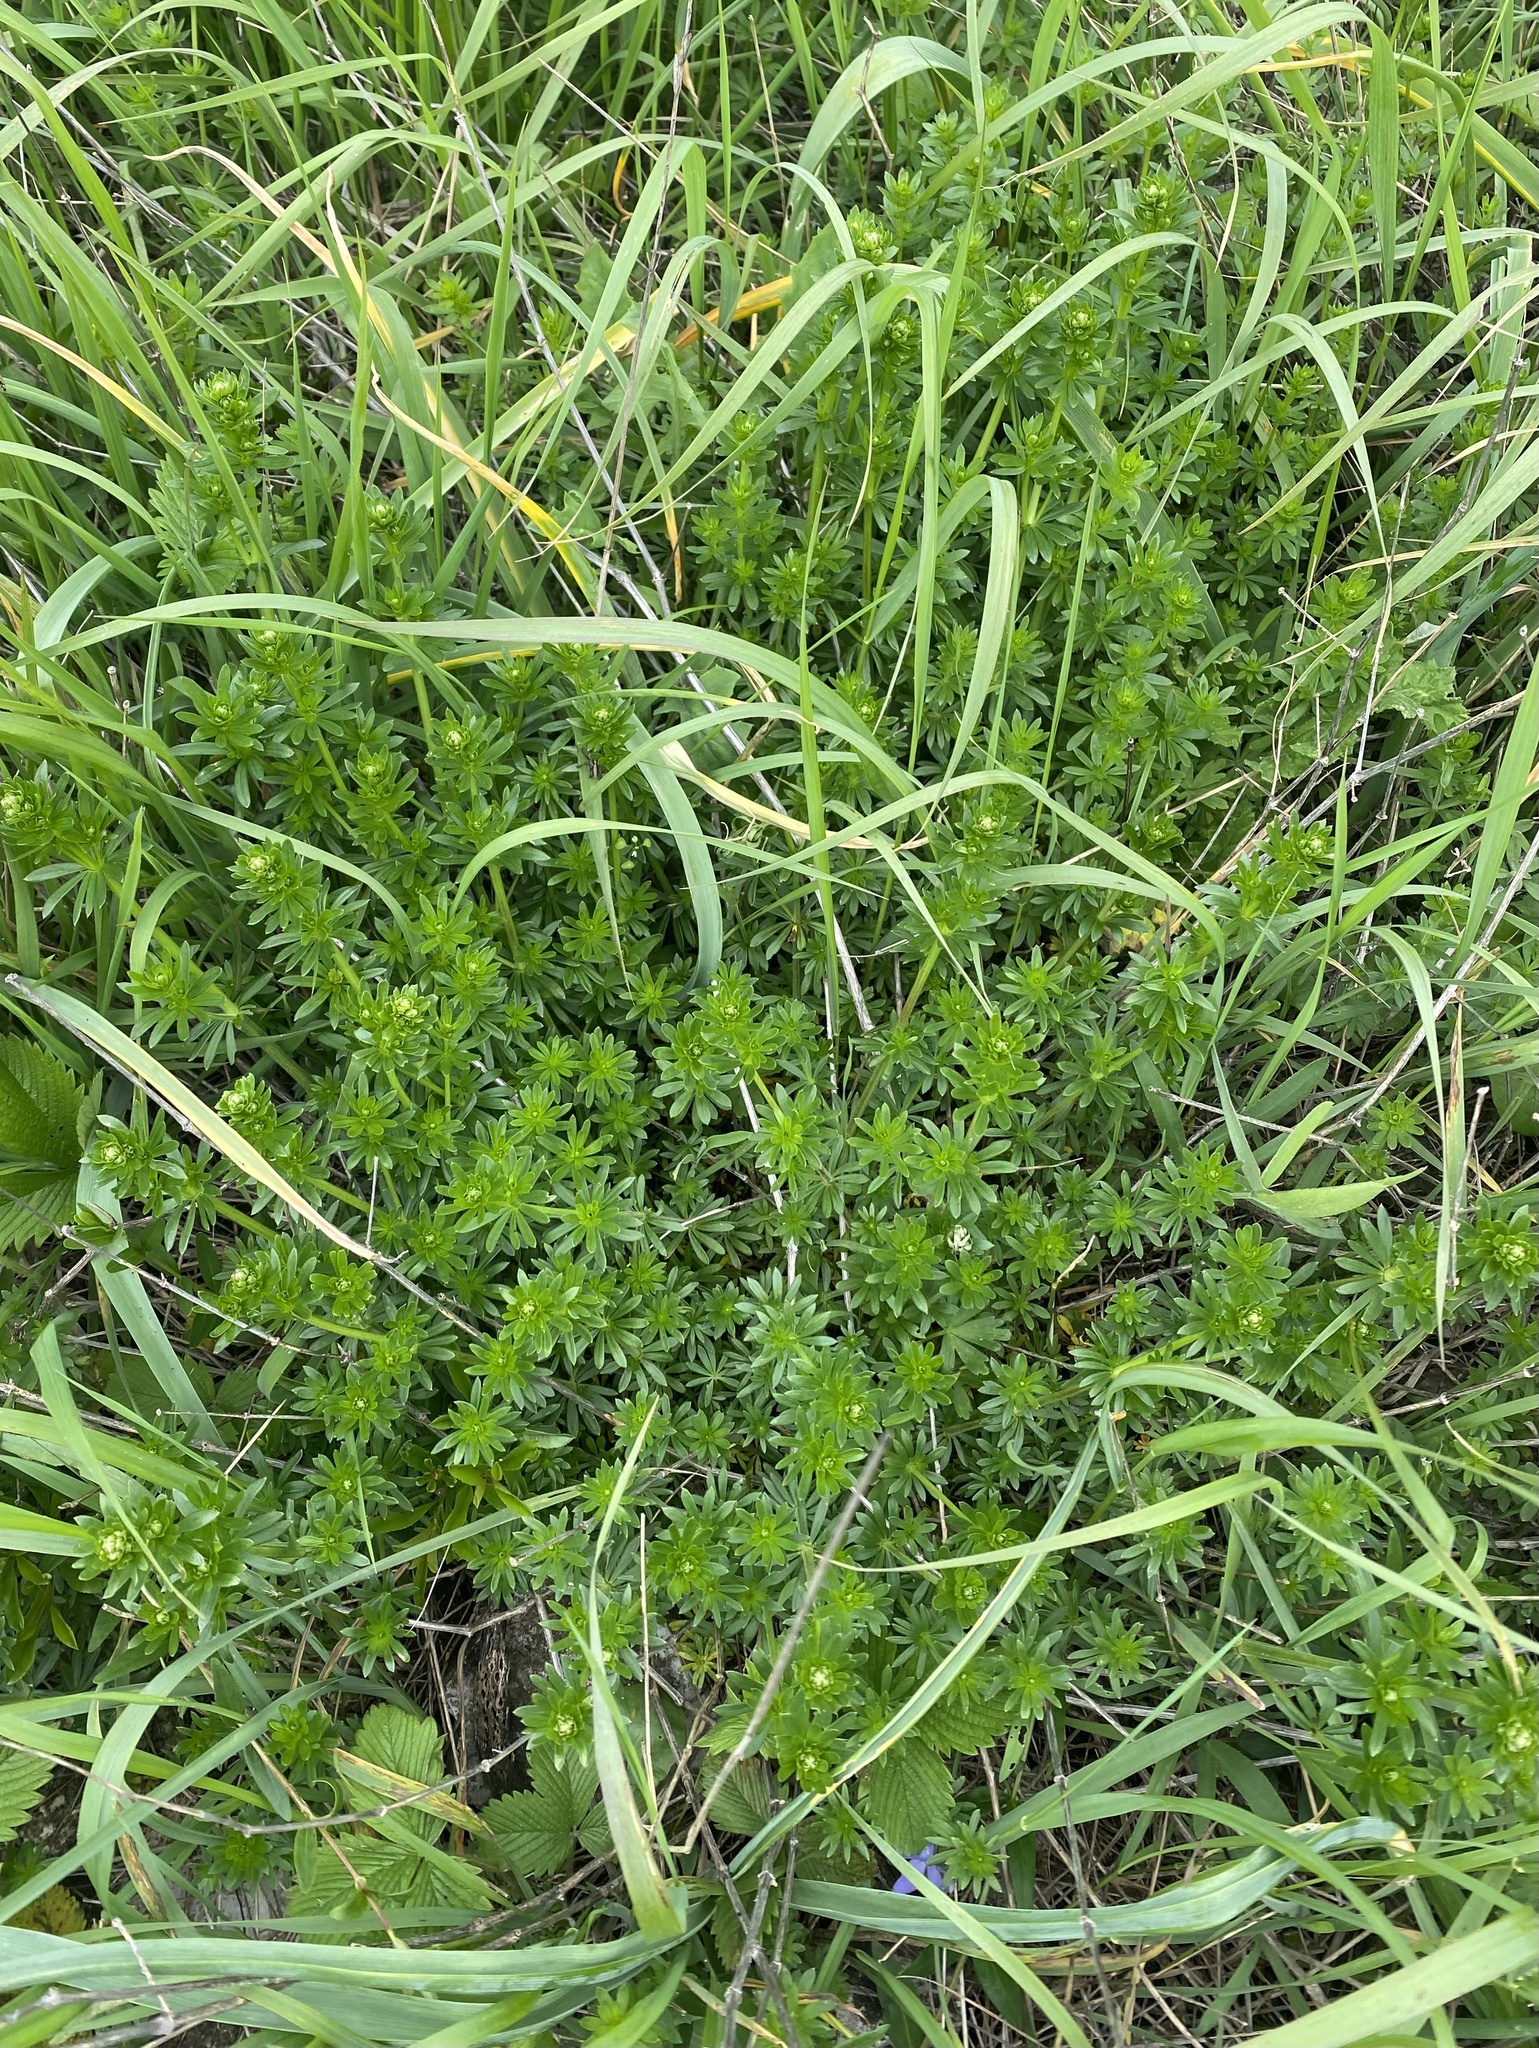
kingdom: Plantae
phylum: Tracheophyta
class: Magnoliopsida
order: Gentianales
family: Rubiaceae
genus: Galium
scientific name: Galium mollugo
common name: Hedge bedstraw
